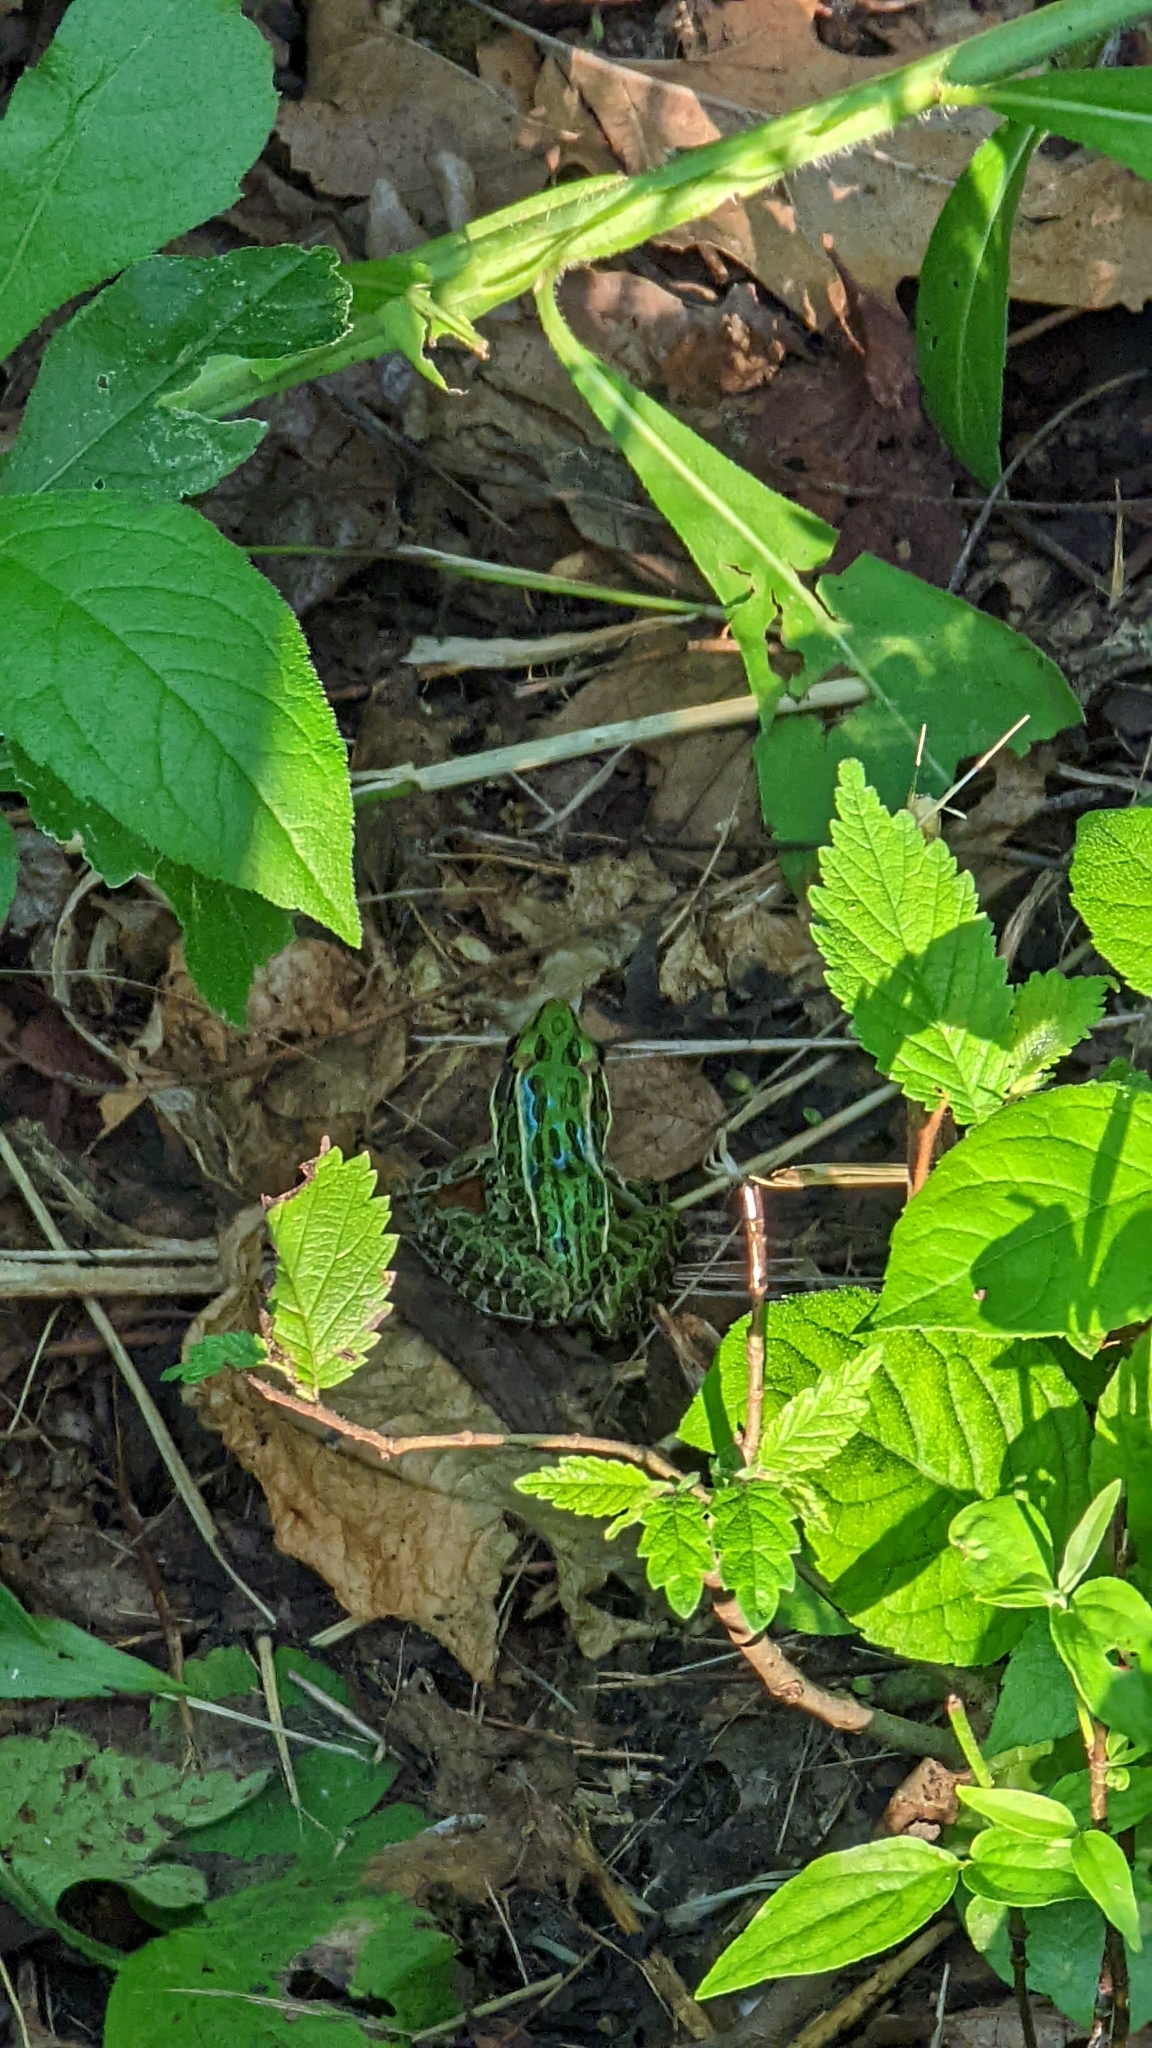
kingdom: Animalia
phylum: Chordata
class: Amphibia
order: Anura
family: Ranidae
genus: Lithobates
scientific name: Lithobates pipiens
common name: Northern leopard frog
